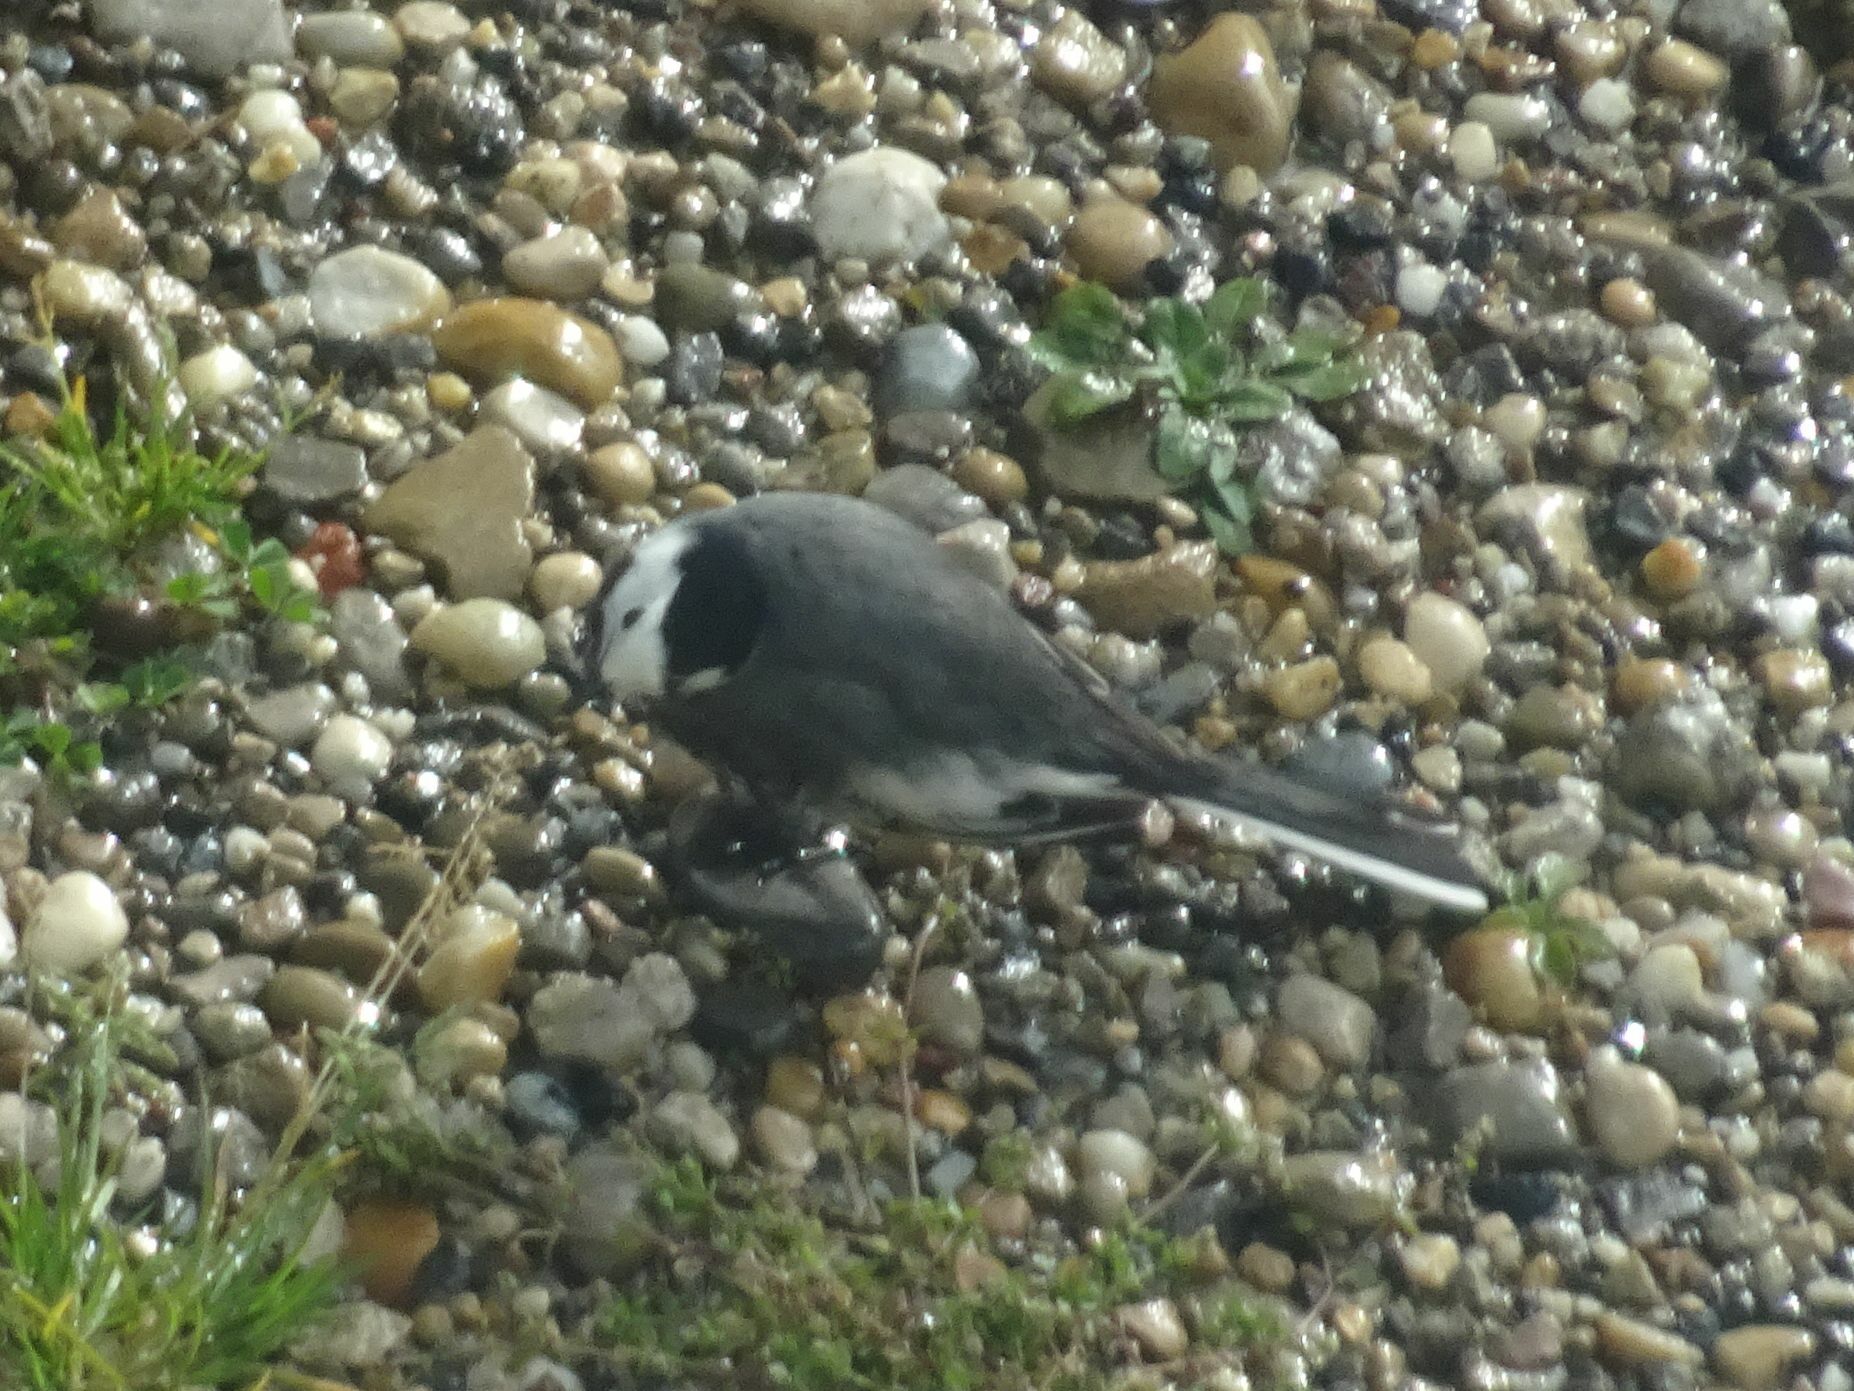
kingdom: Animalia
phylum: Chordata
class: Aves
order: Passeriformes
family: Motacillidae
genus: Motacilla
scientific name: Motacilla alba
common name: White wagtail
